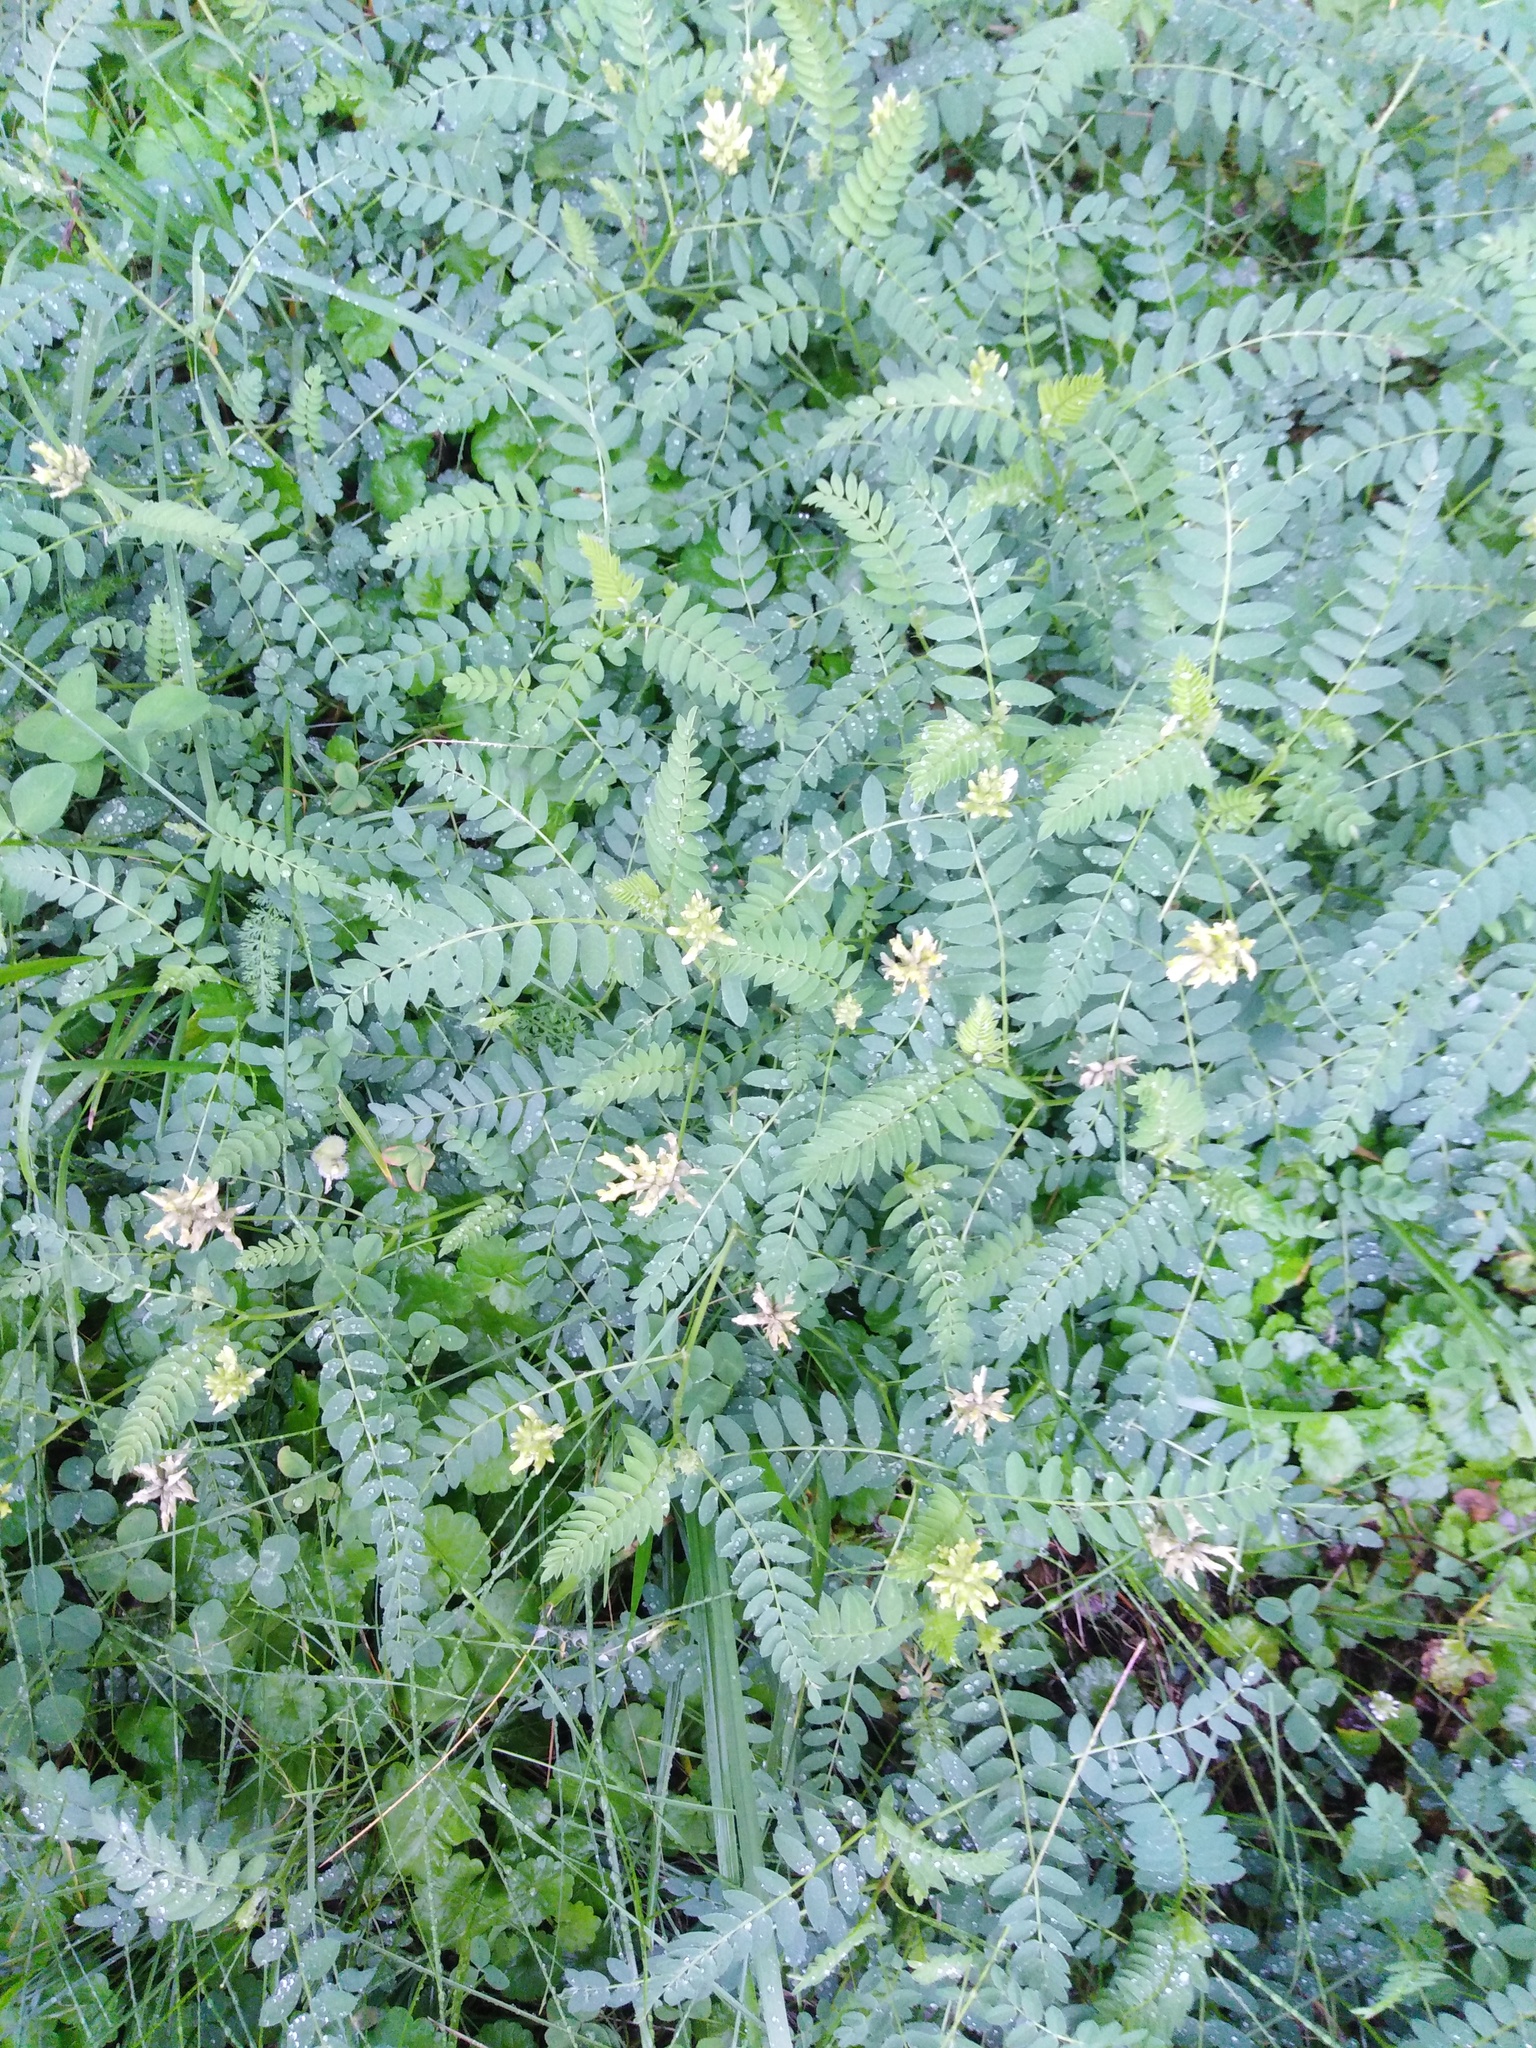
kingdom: Plantae
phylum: Tracheophyta
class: Magnoliopsida
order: Fabales
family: Fabaceae
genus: Astragalus
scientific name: Astragalus cicer
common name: Chick-pea milk-vetch
